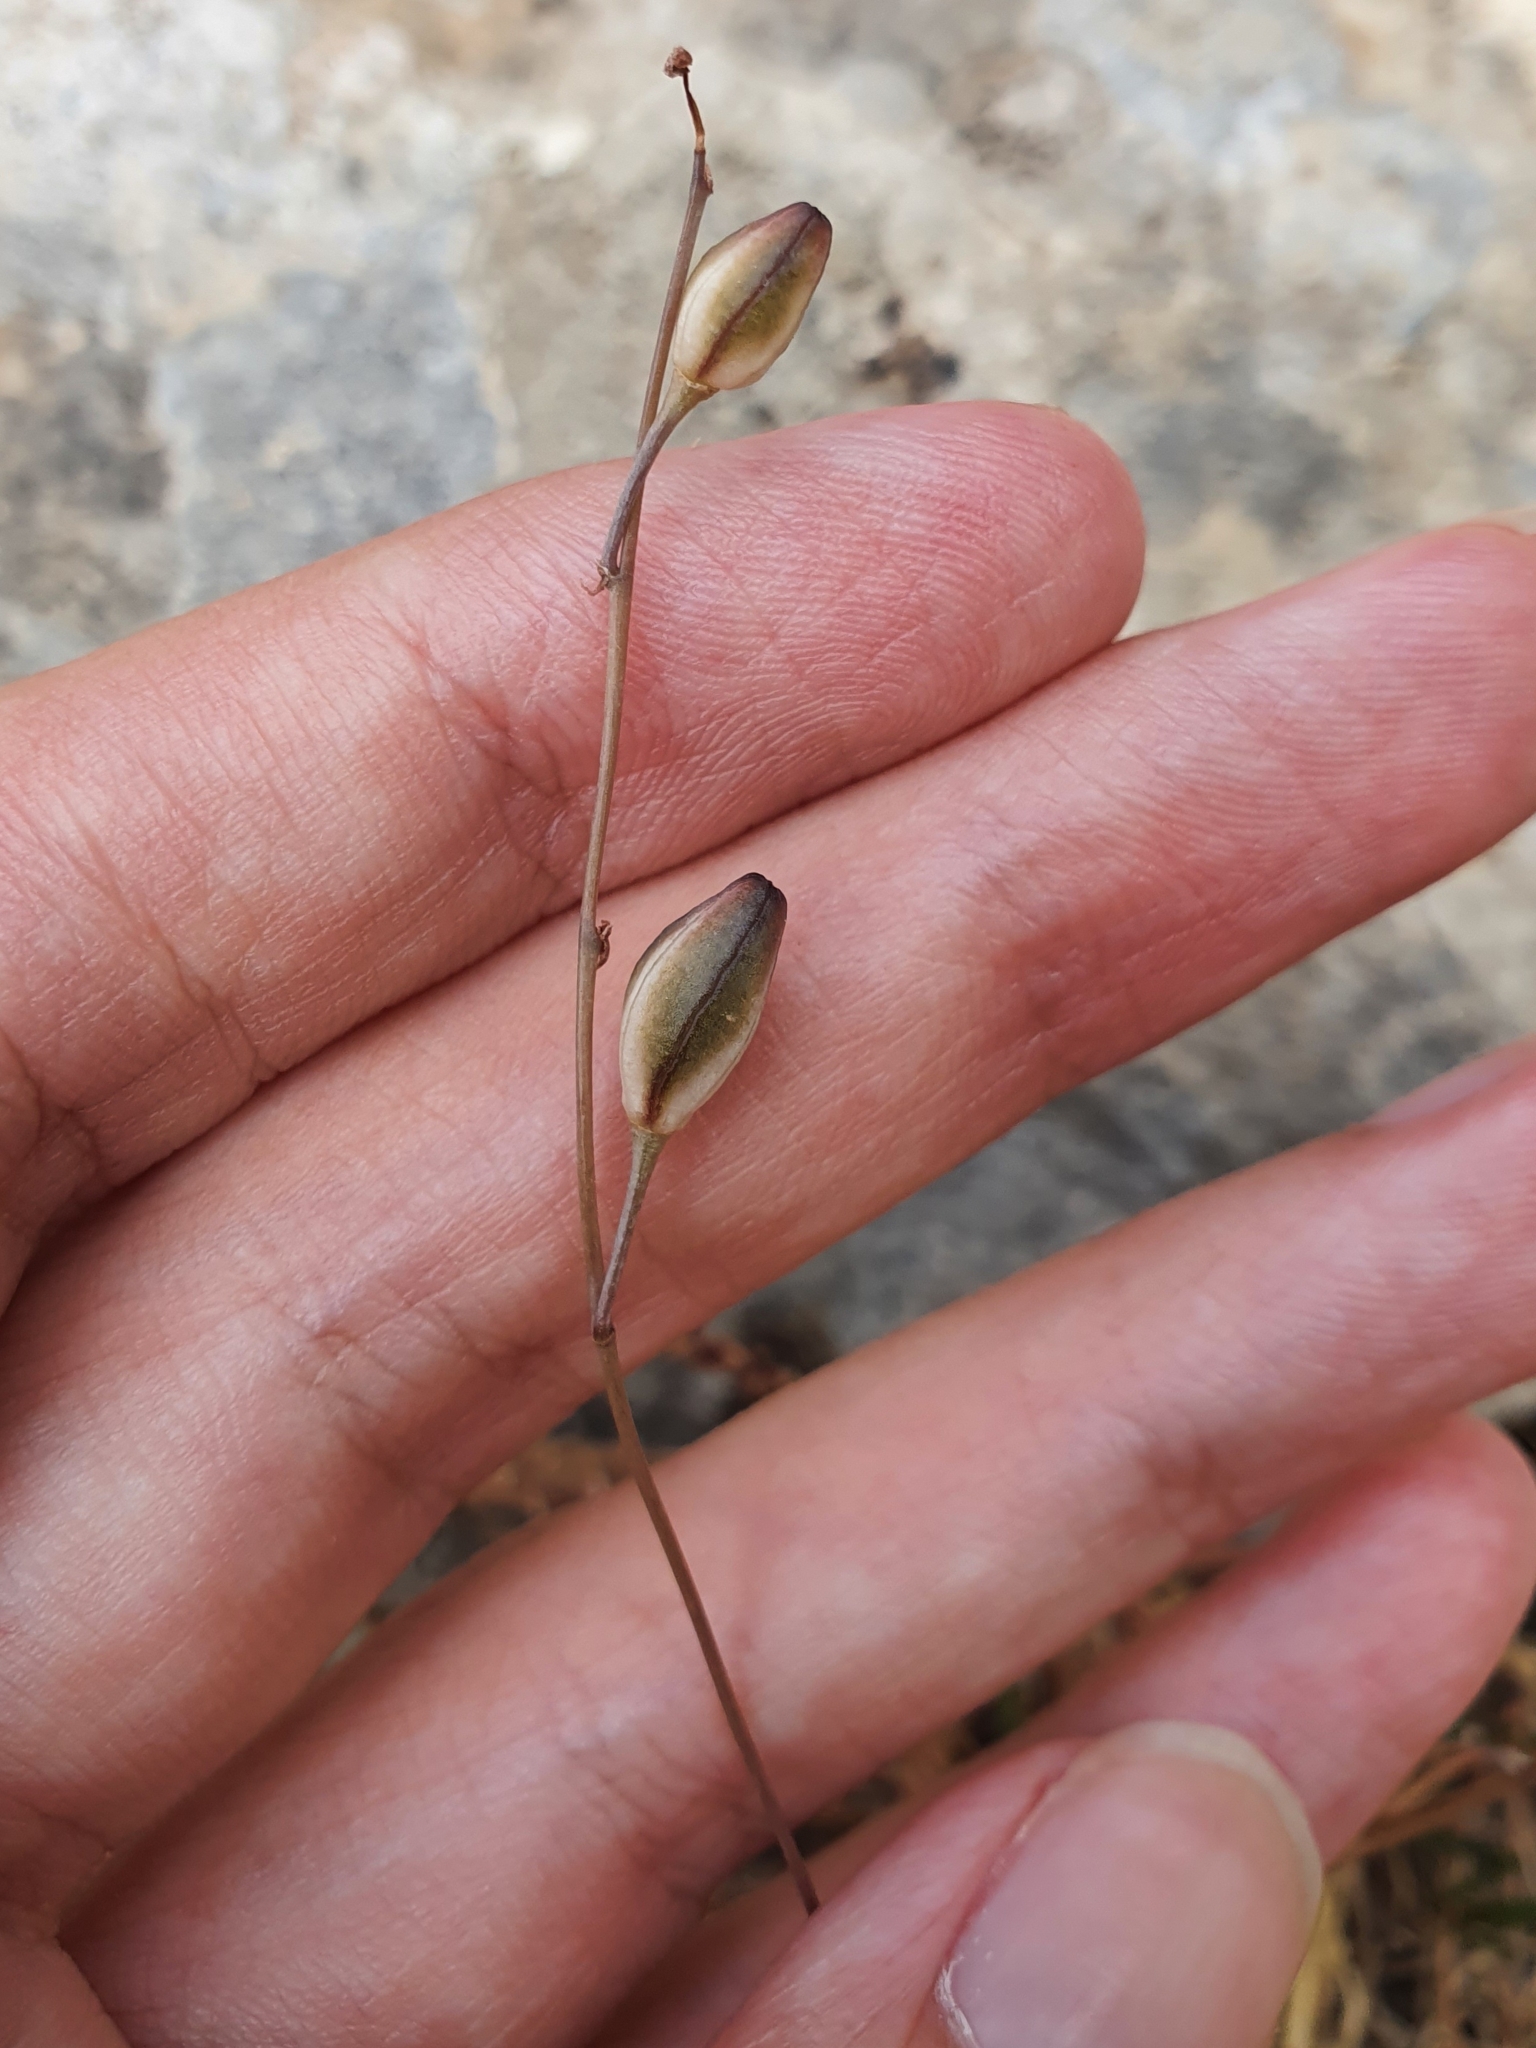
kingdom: Plantae
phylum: Tracheophyta
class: Liliopsida
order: Asparagales
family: Asparagaceae
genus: Drimia
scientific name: Drimia fugax
